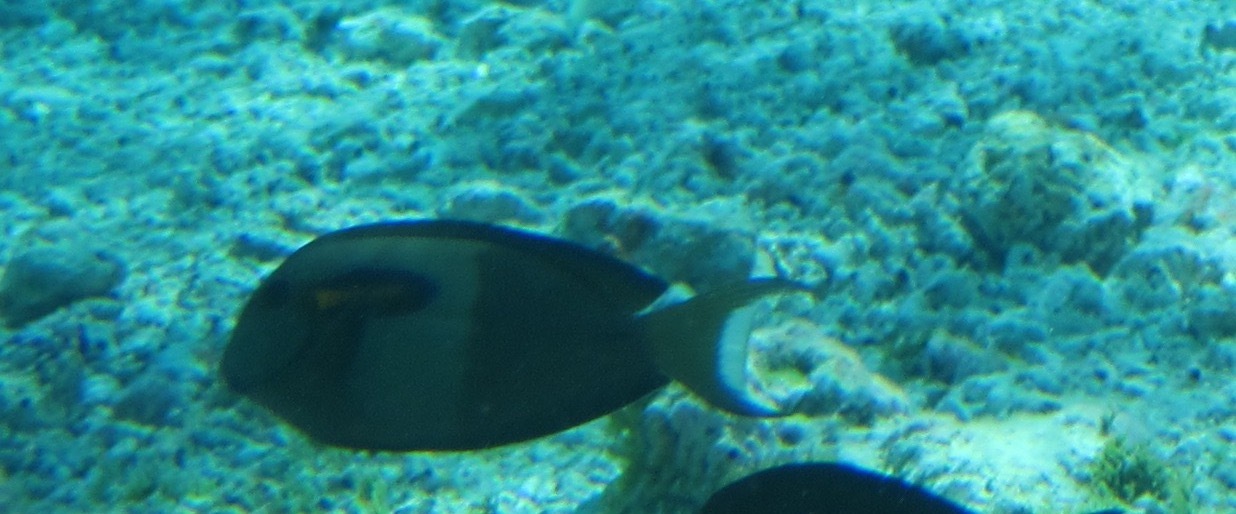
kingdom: Animalia
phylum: Chordata
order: Perciformes
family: Acanthuridae
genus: Acanthurus
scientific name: Acanthurus olivaceus
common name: Gendarme fish
